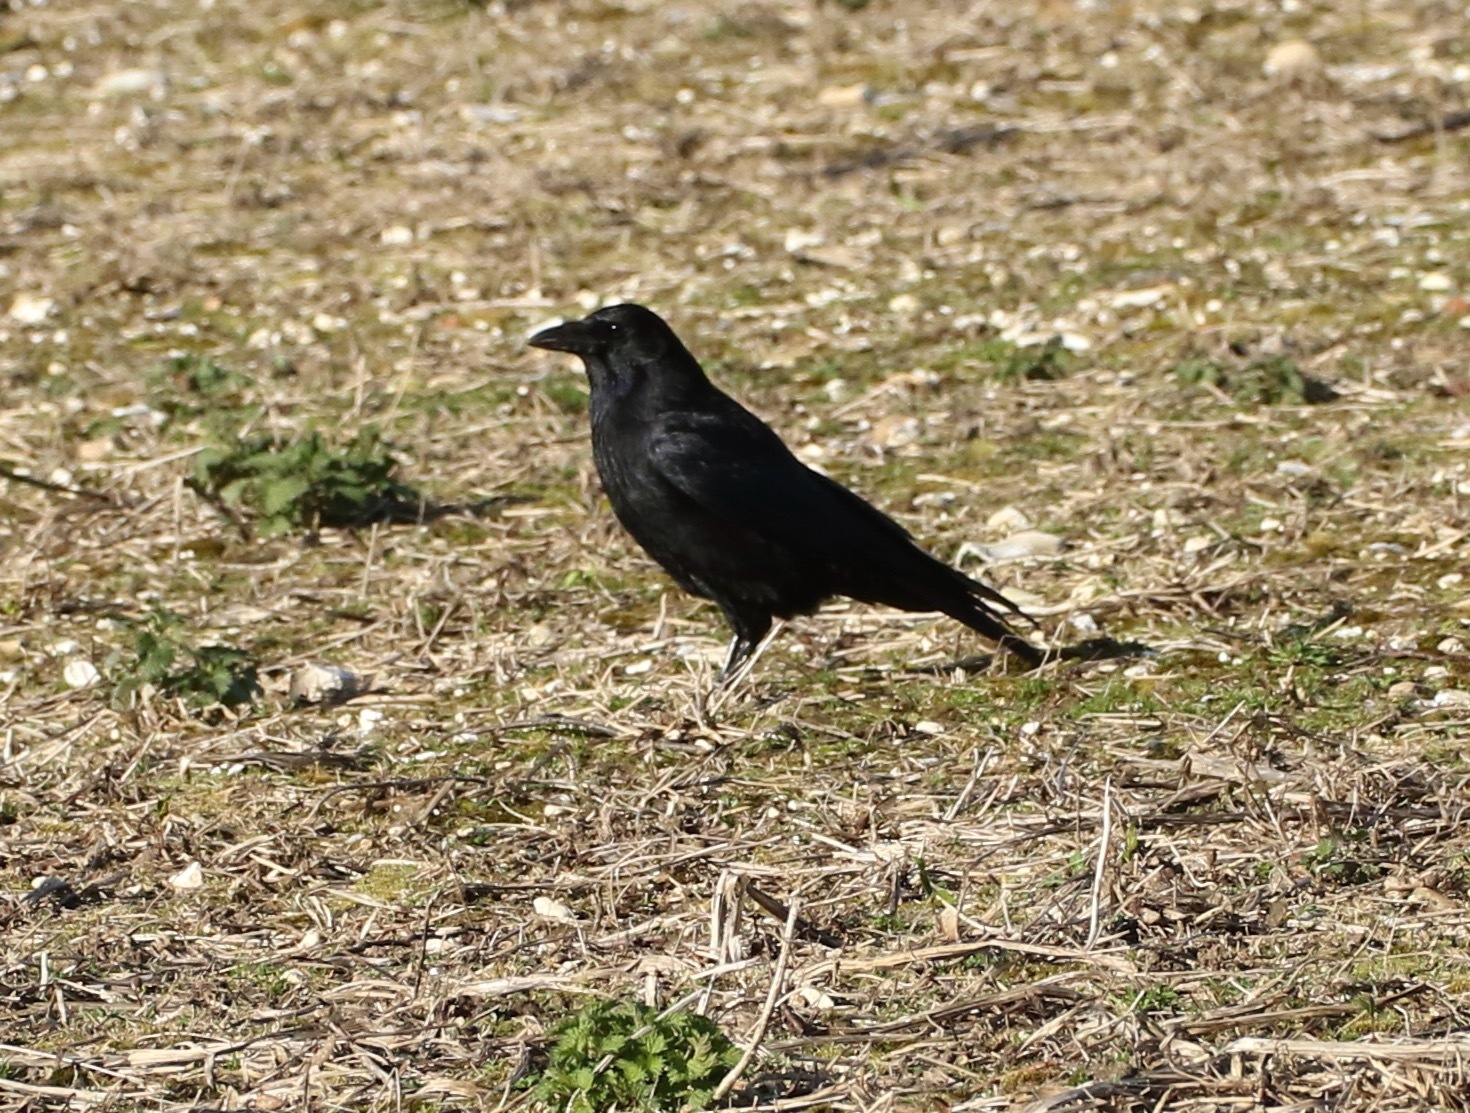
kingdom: Animalia
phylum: Chordata
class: Aves
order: Passeriformes
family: Corvidae
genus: Corvus
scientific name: Corvus corone
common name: Carrion crow
